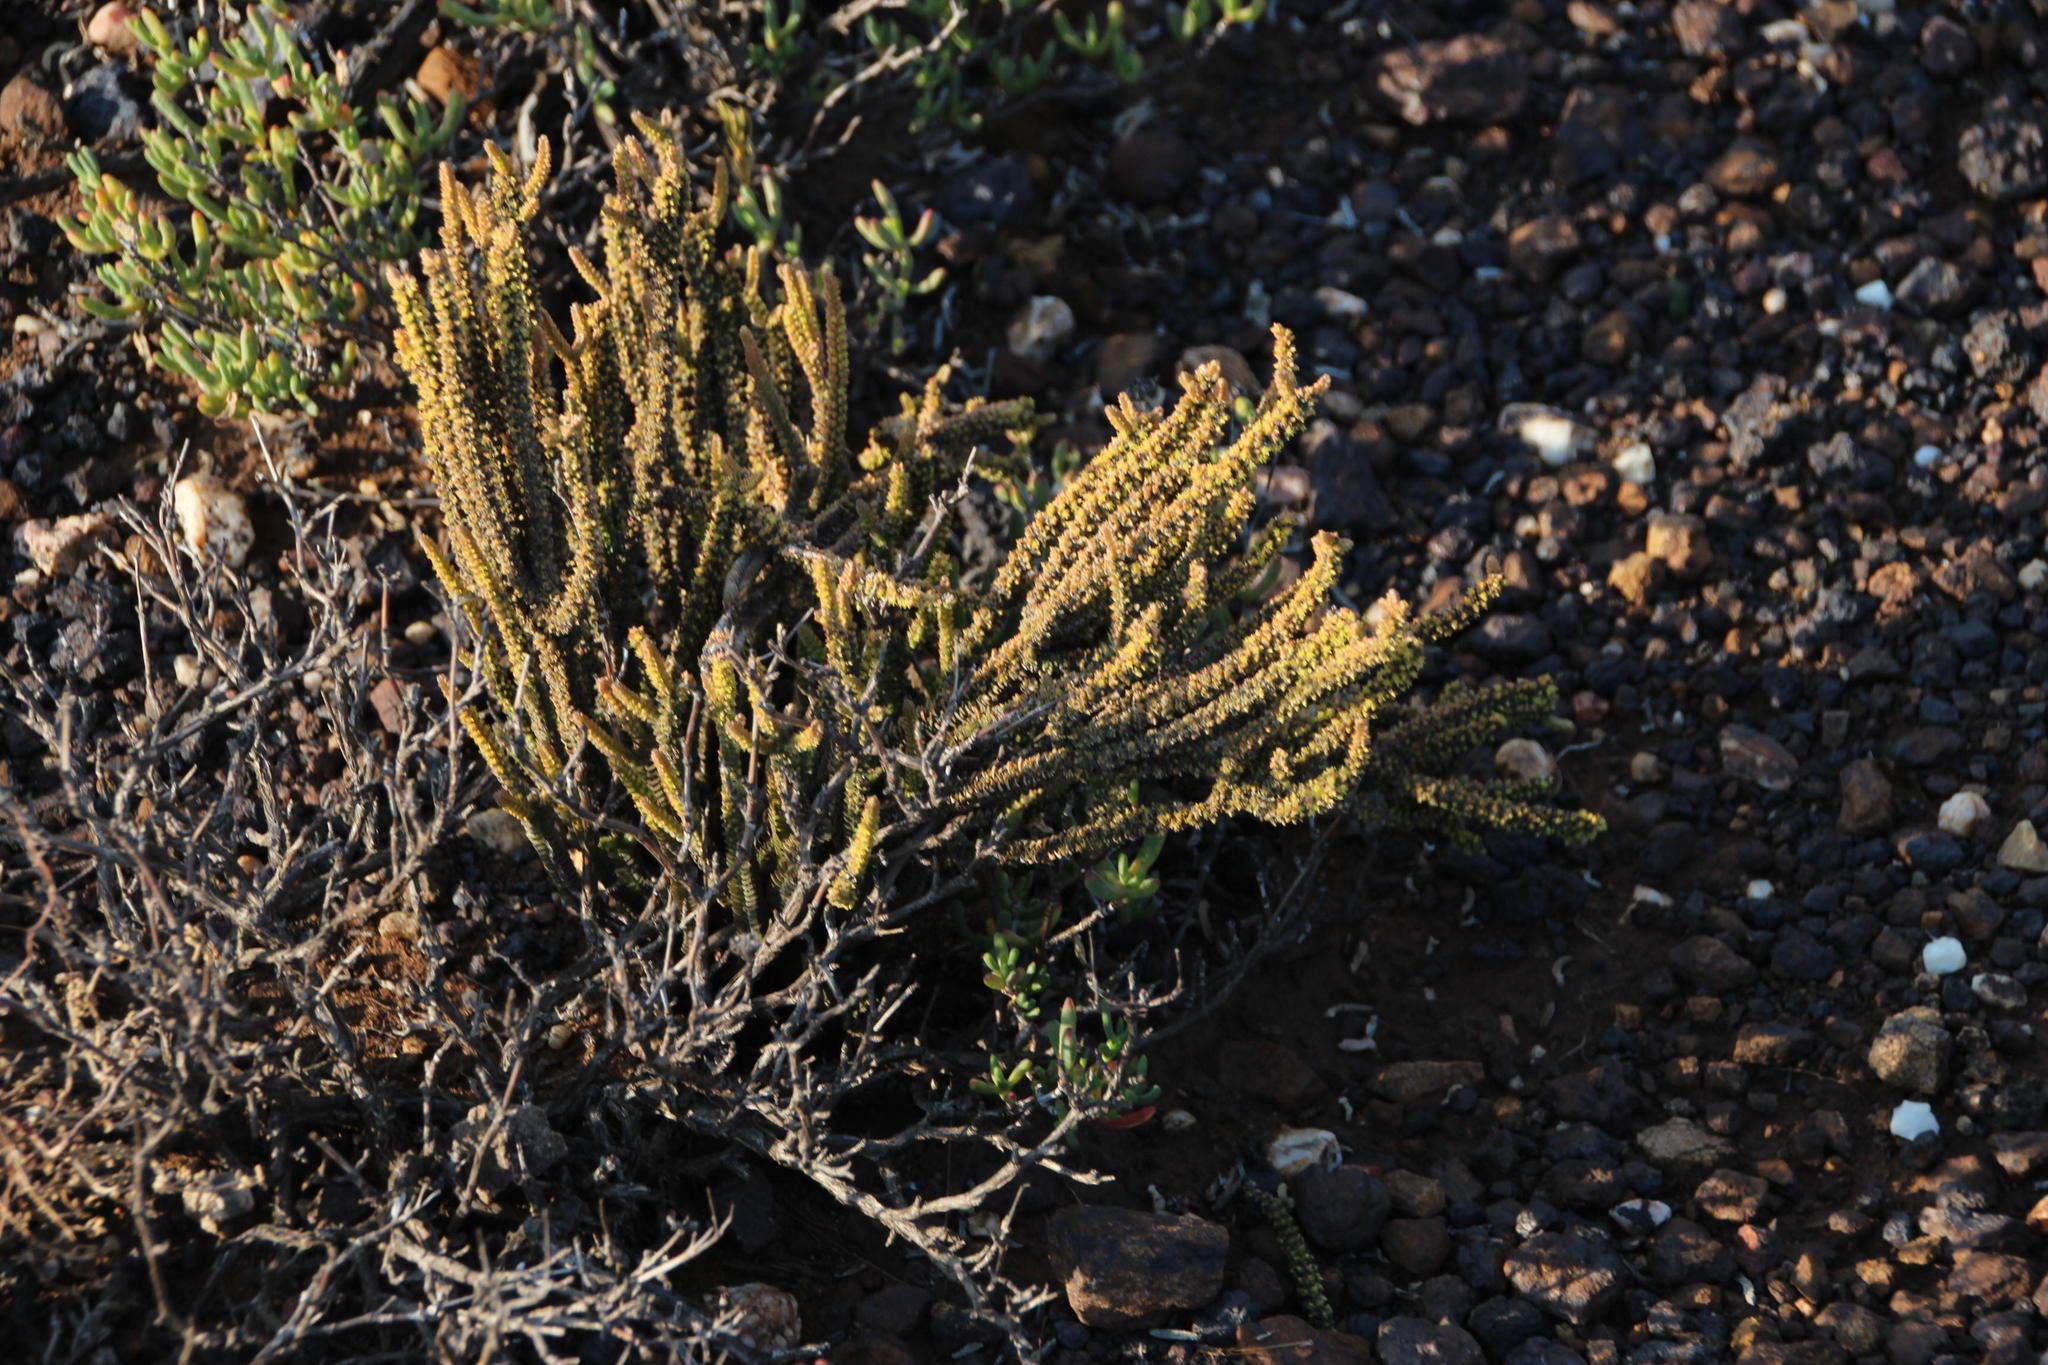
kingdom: Plantae
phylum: Tracheophyta
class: Magnoliopsida
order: Saxifragales
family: Crassulaceae
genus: Crassula
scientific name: Crassula muscosa
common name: Toy-cypress
